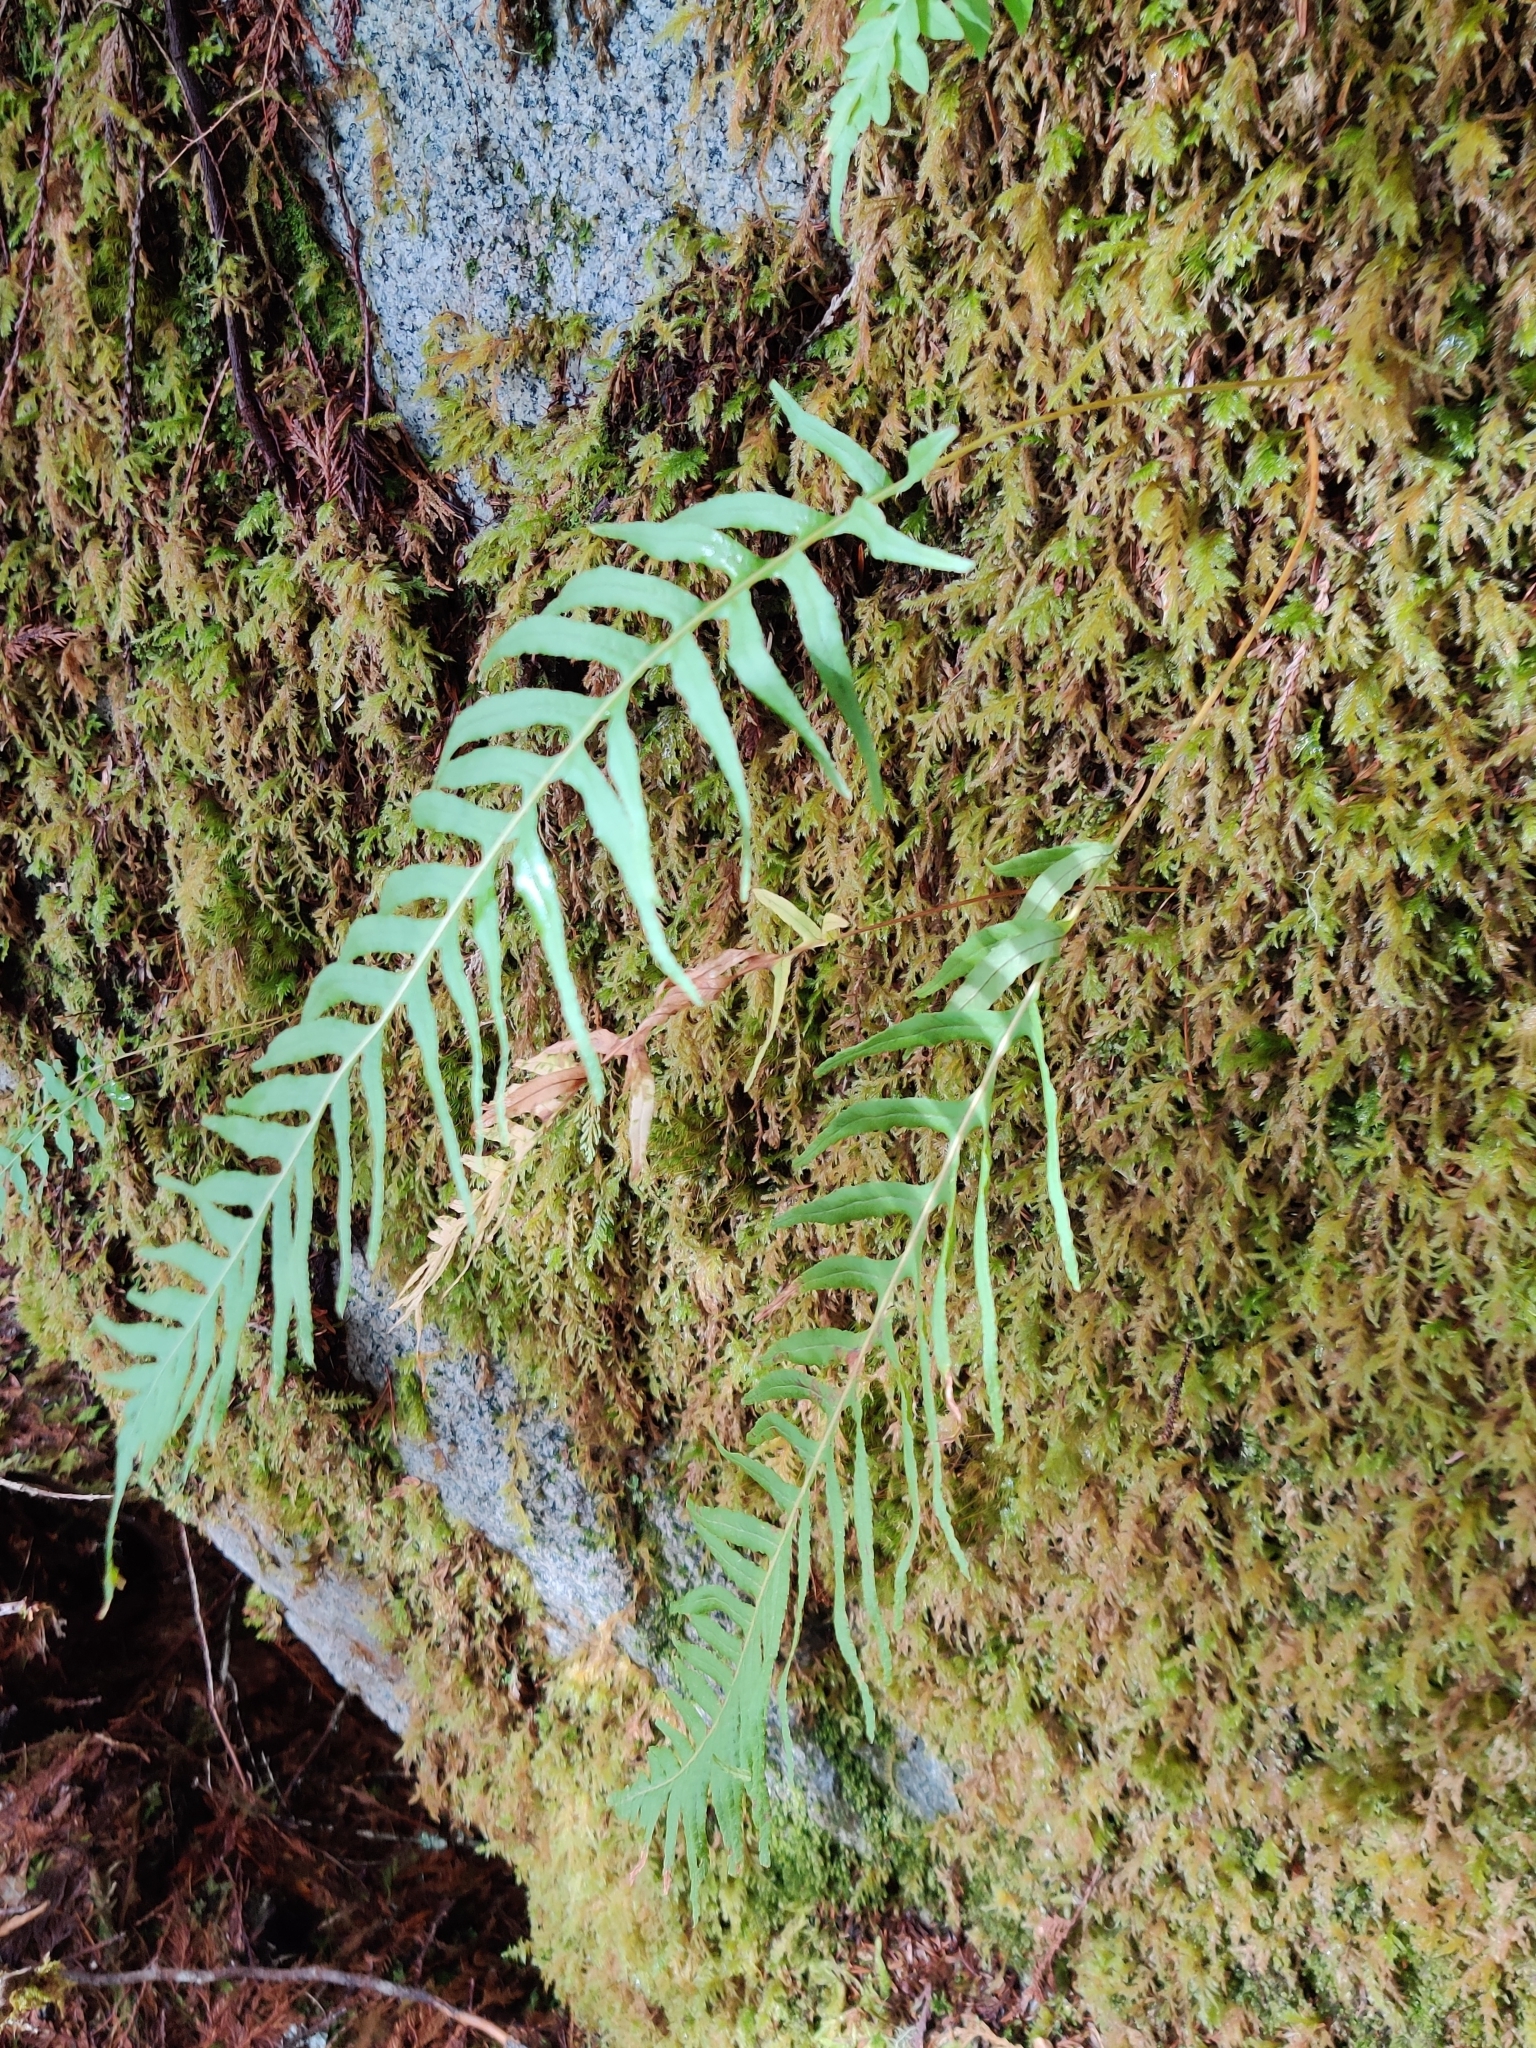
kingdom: Plantae
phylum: Tracheophyta
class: Polypodiopsida
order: Polypodiales
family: Polypodiaceae
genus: Polypodium
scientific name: Polypodium glycyrrhiza
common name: Licorice fern
